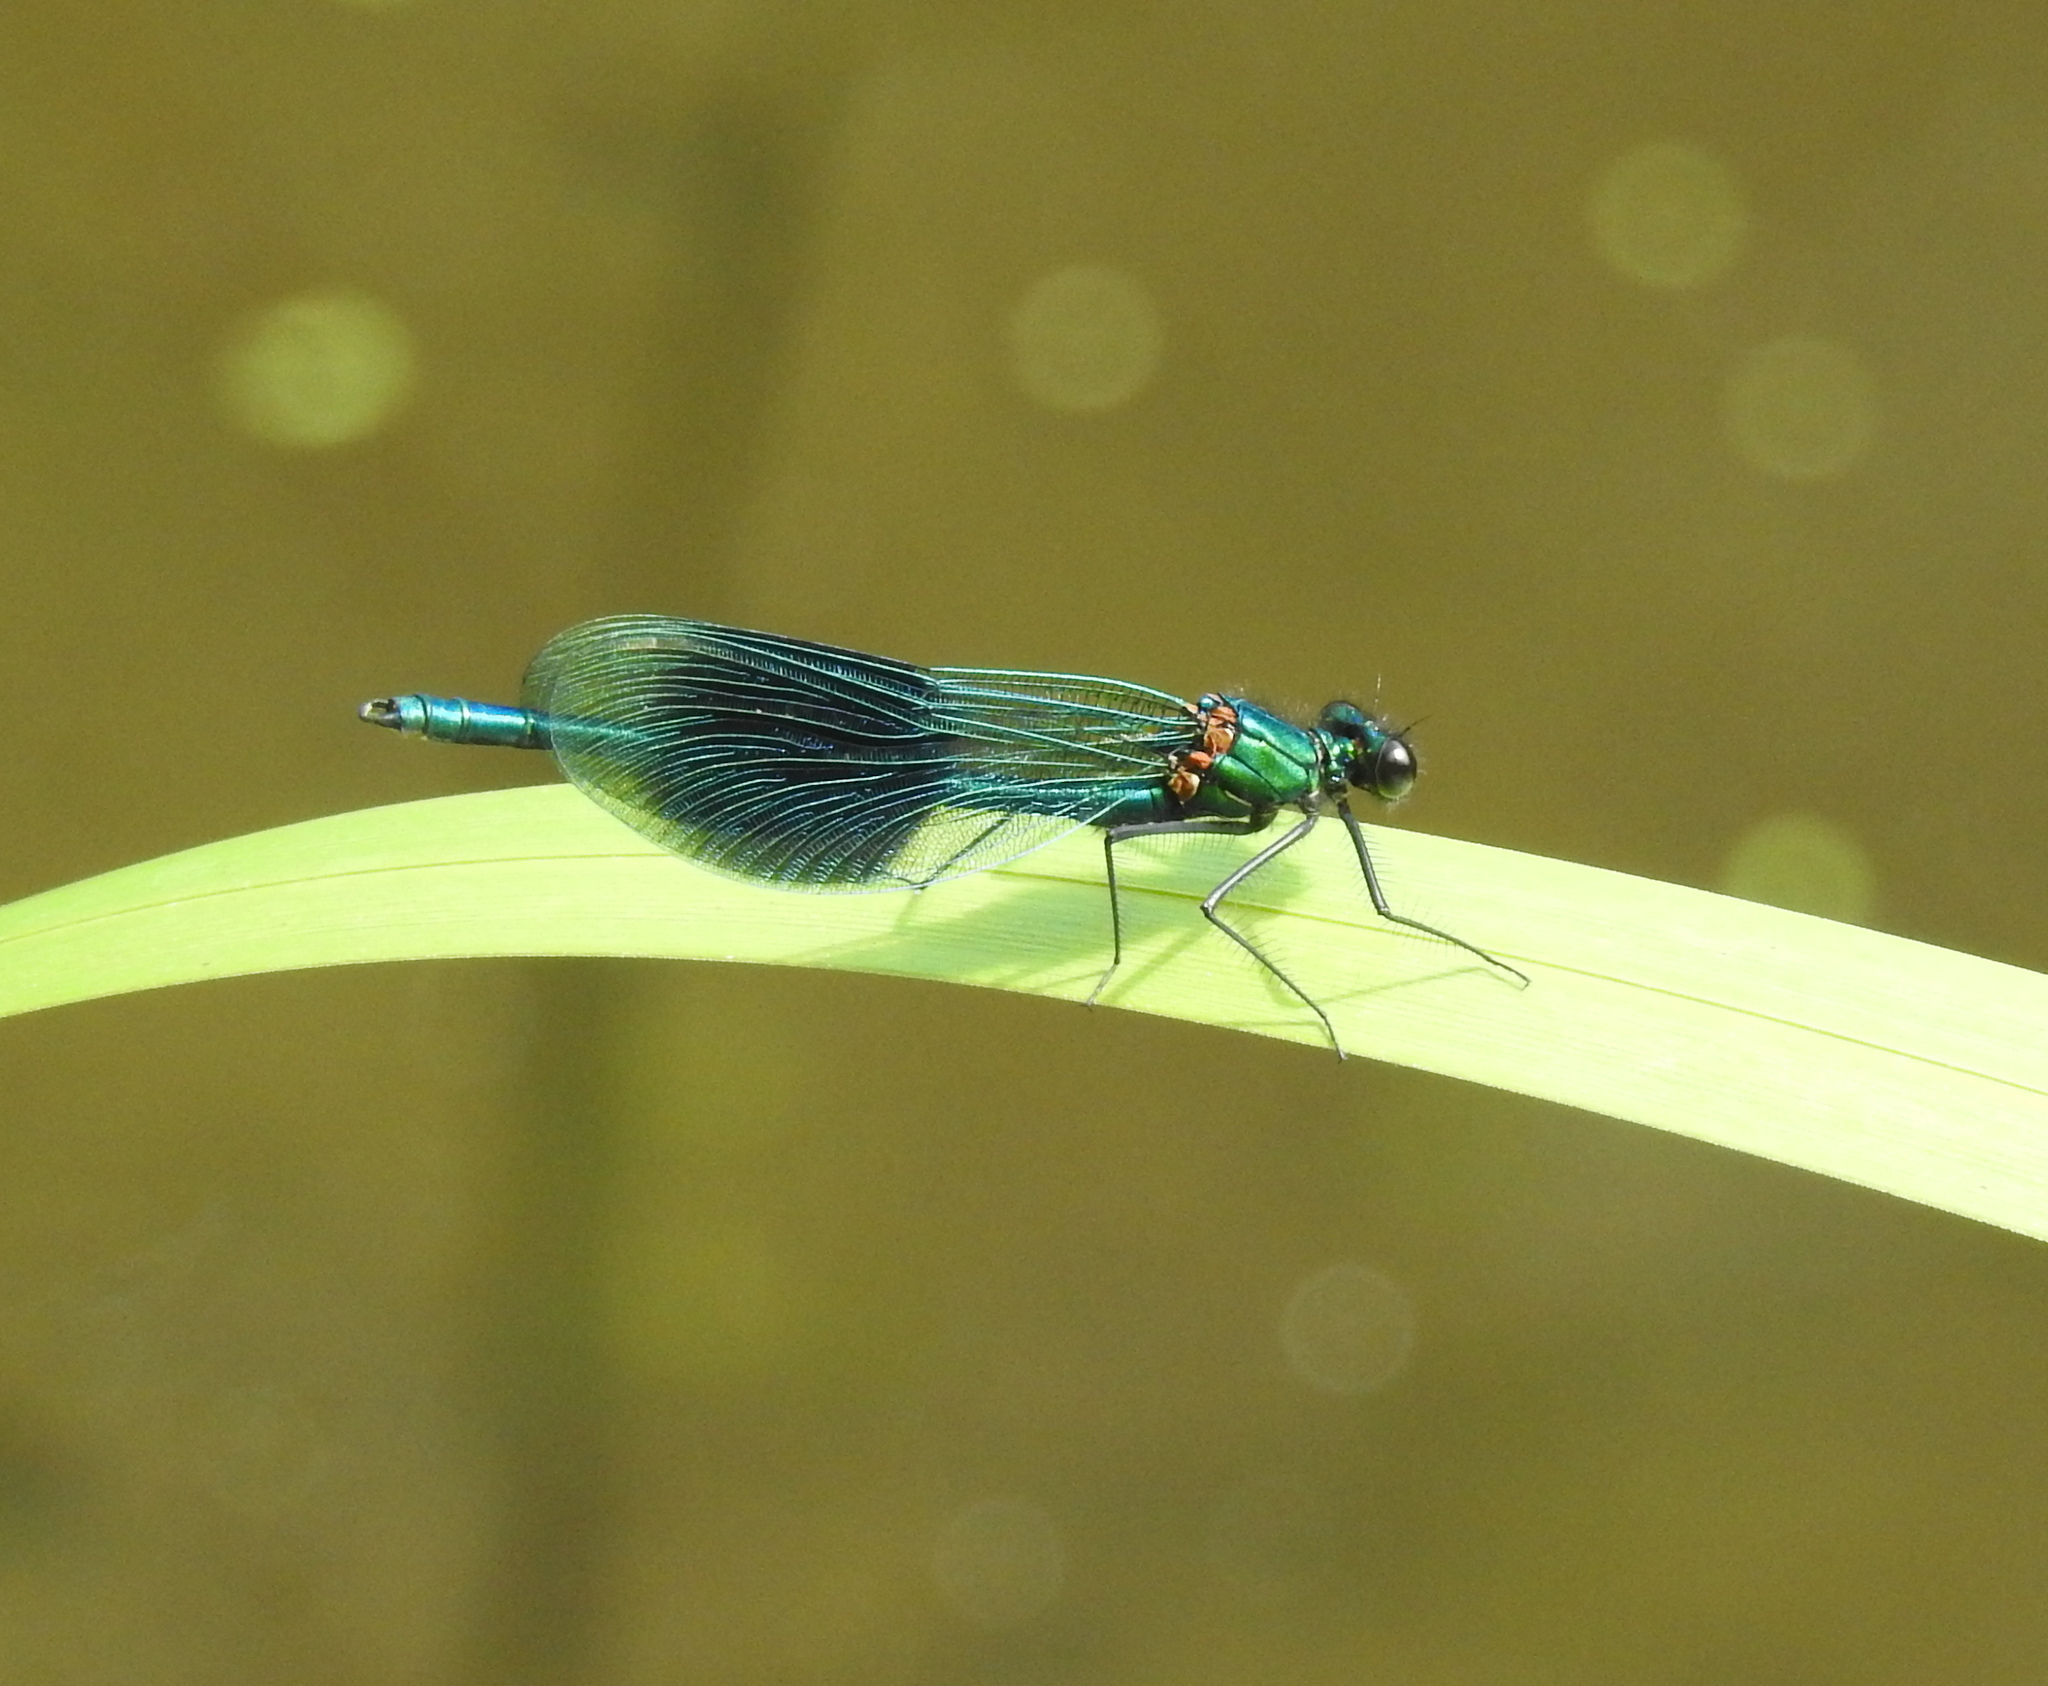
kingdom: Animalia
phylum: Arthropoda
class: Insecta
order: Odonata
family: Calopterygidae
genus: Calopteryx
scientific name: Calopteryx splendens
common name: Banded demoiselle
